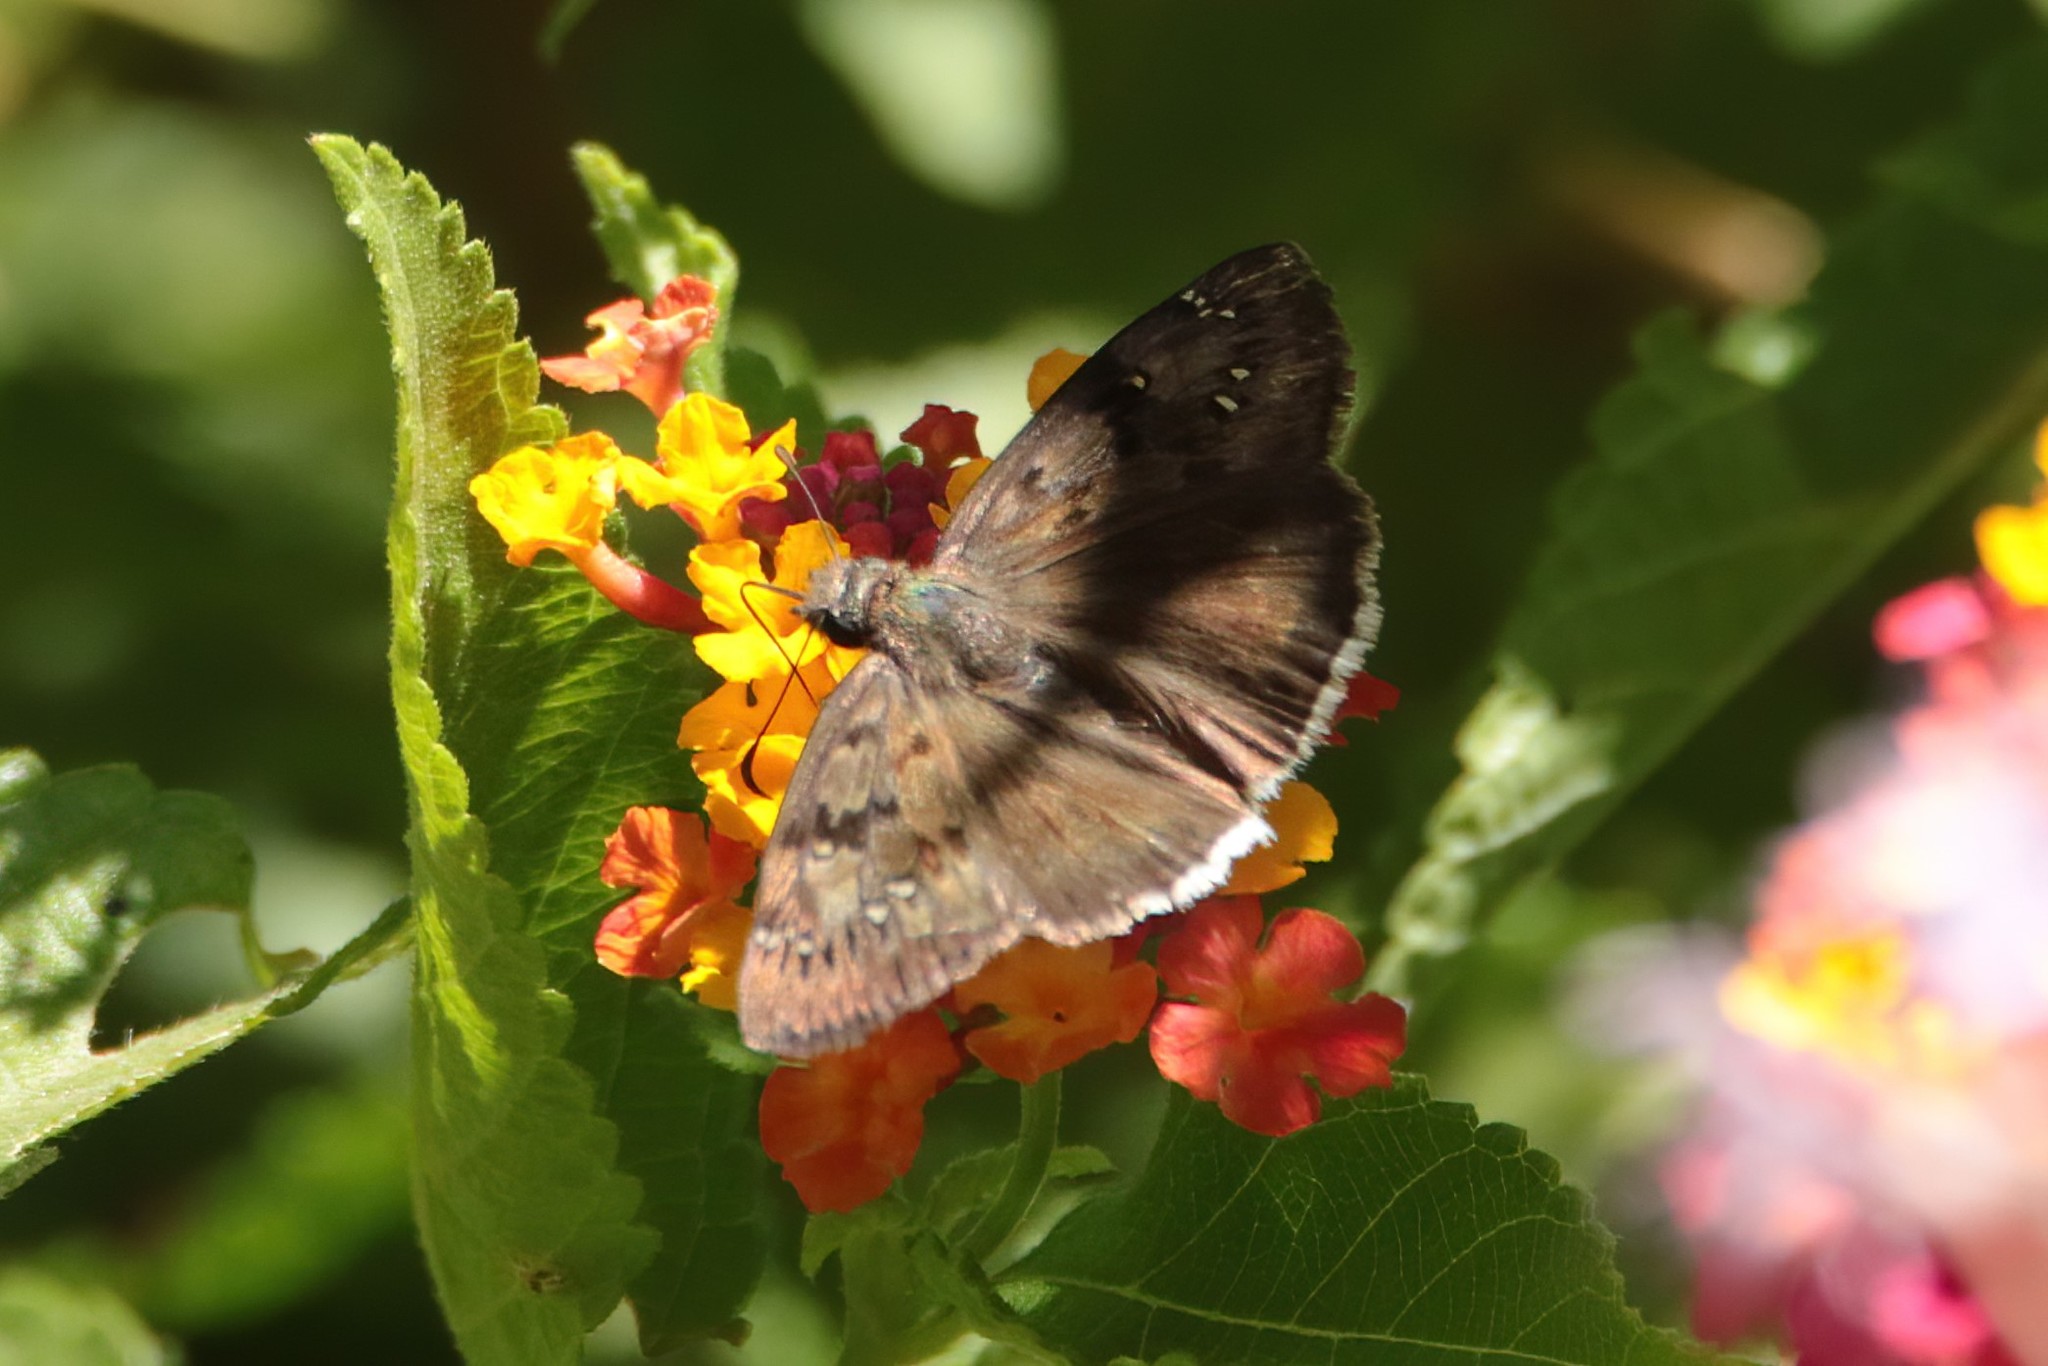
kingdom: Animalia
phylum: Arthropoda
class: Insecta
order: Lepidoptera
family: Hesperiidae
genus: Erynnis
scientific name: Erynnis tristis
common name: Mournful duskywing
